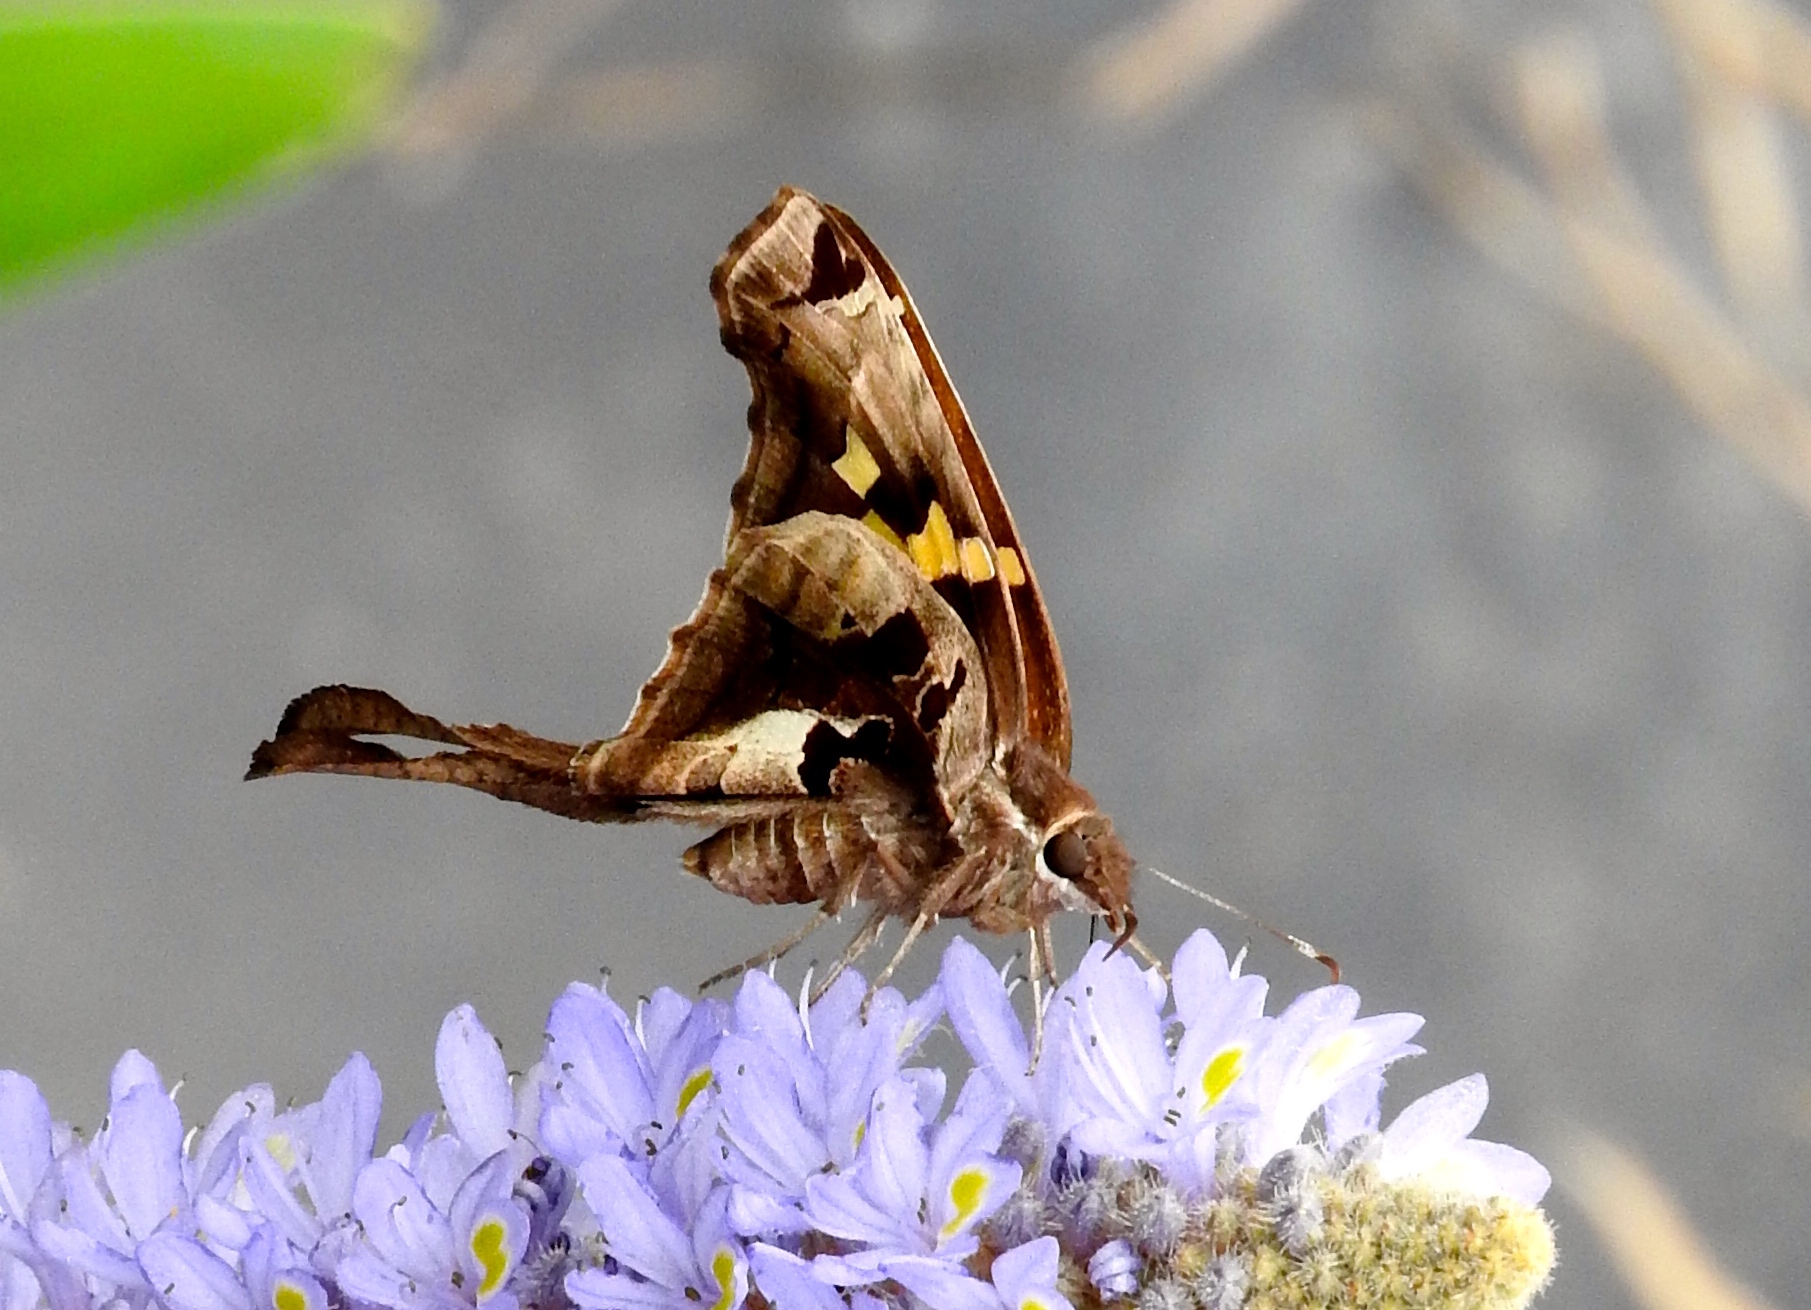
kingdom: Animalia
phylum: Arthropoda
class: Insecta
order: Lepidoptera
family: Hesperiidae
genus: Chioides
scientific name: Chioides zilpa
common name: Zilpa longtail
